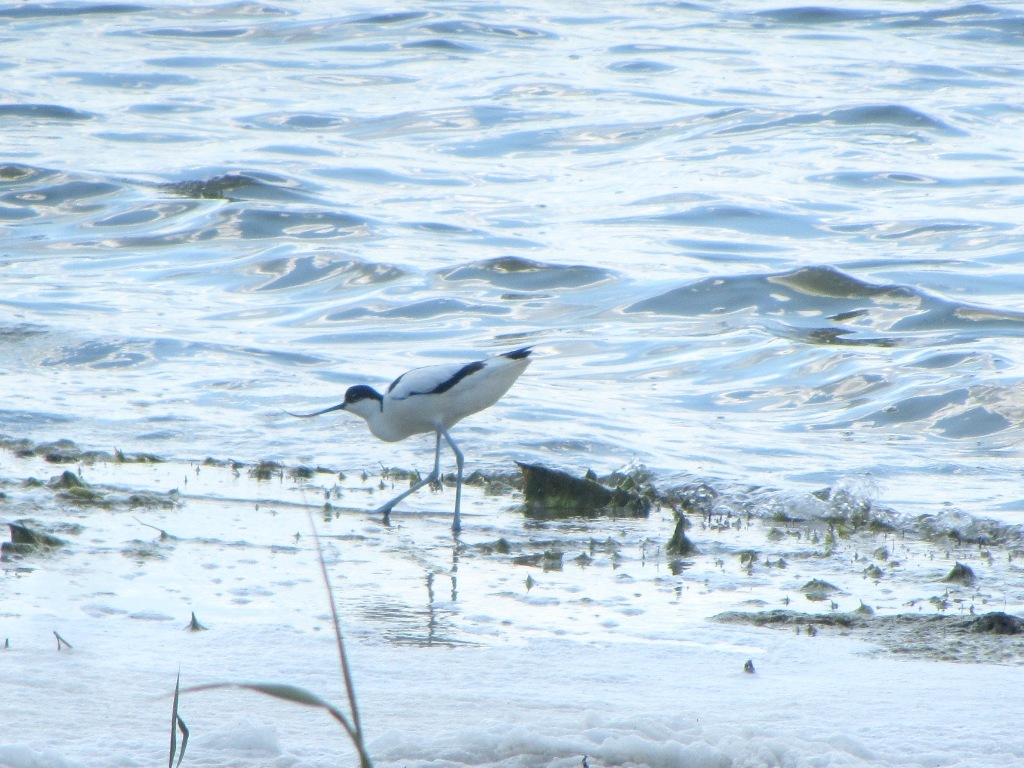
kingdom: Animalia
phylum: Chordata
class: Aves
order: Charadriiformes
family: Recurvirostridae
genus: Recurvirostra
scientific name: Recurvirostra avosetta
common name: Pied avocet
